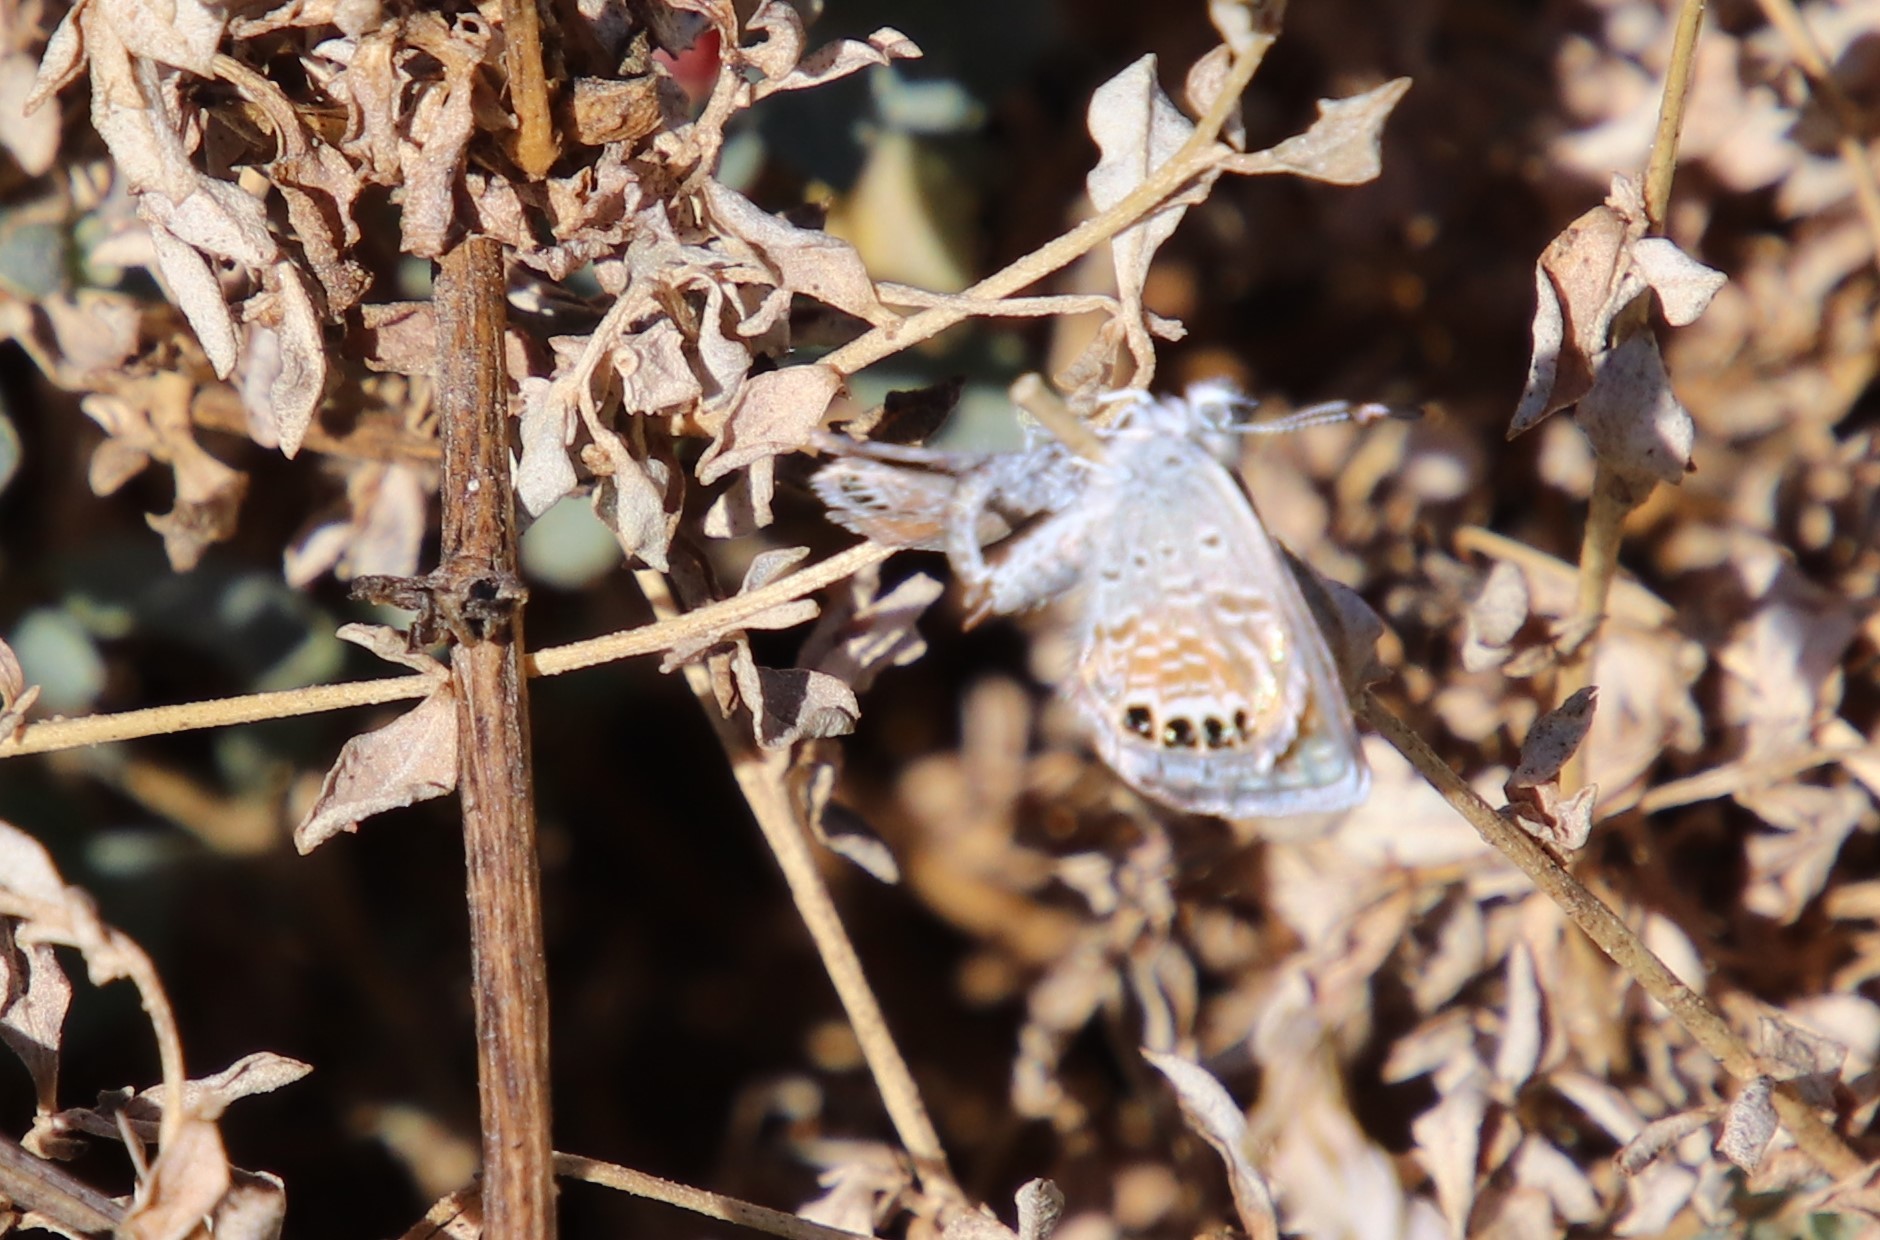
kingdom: Animalia
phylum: Arthropoda
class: Insecta
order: Lepidoptera
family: Lycaenidae
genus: Brephidium
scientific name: Brephidium exilis
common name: Pygmy blue
